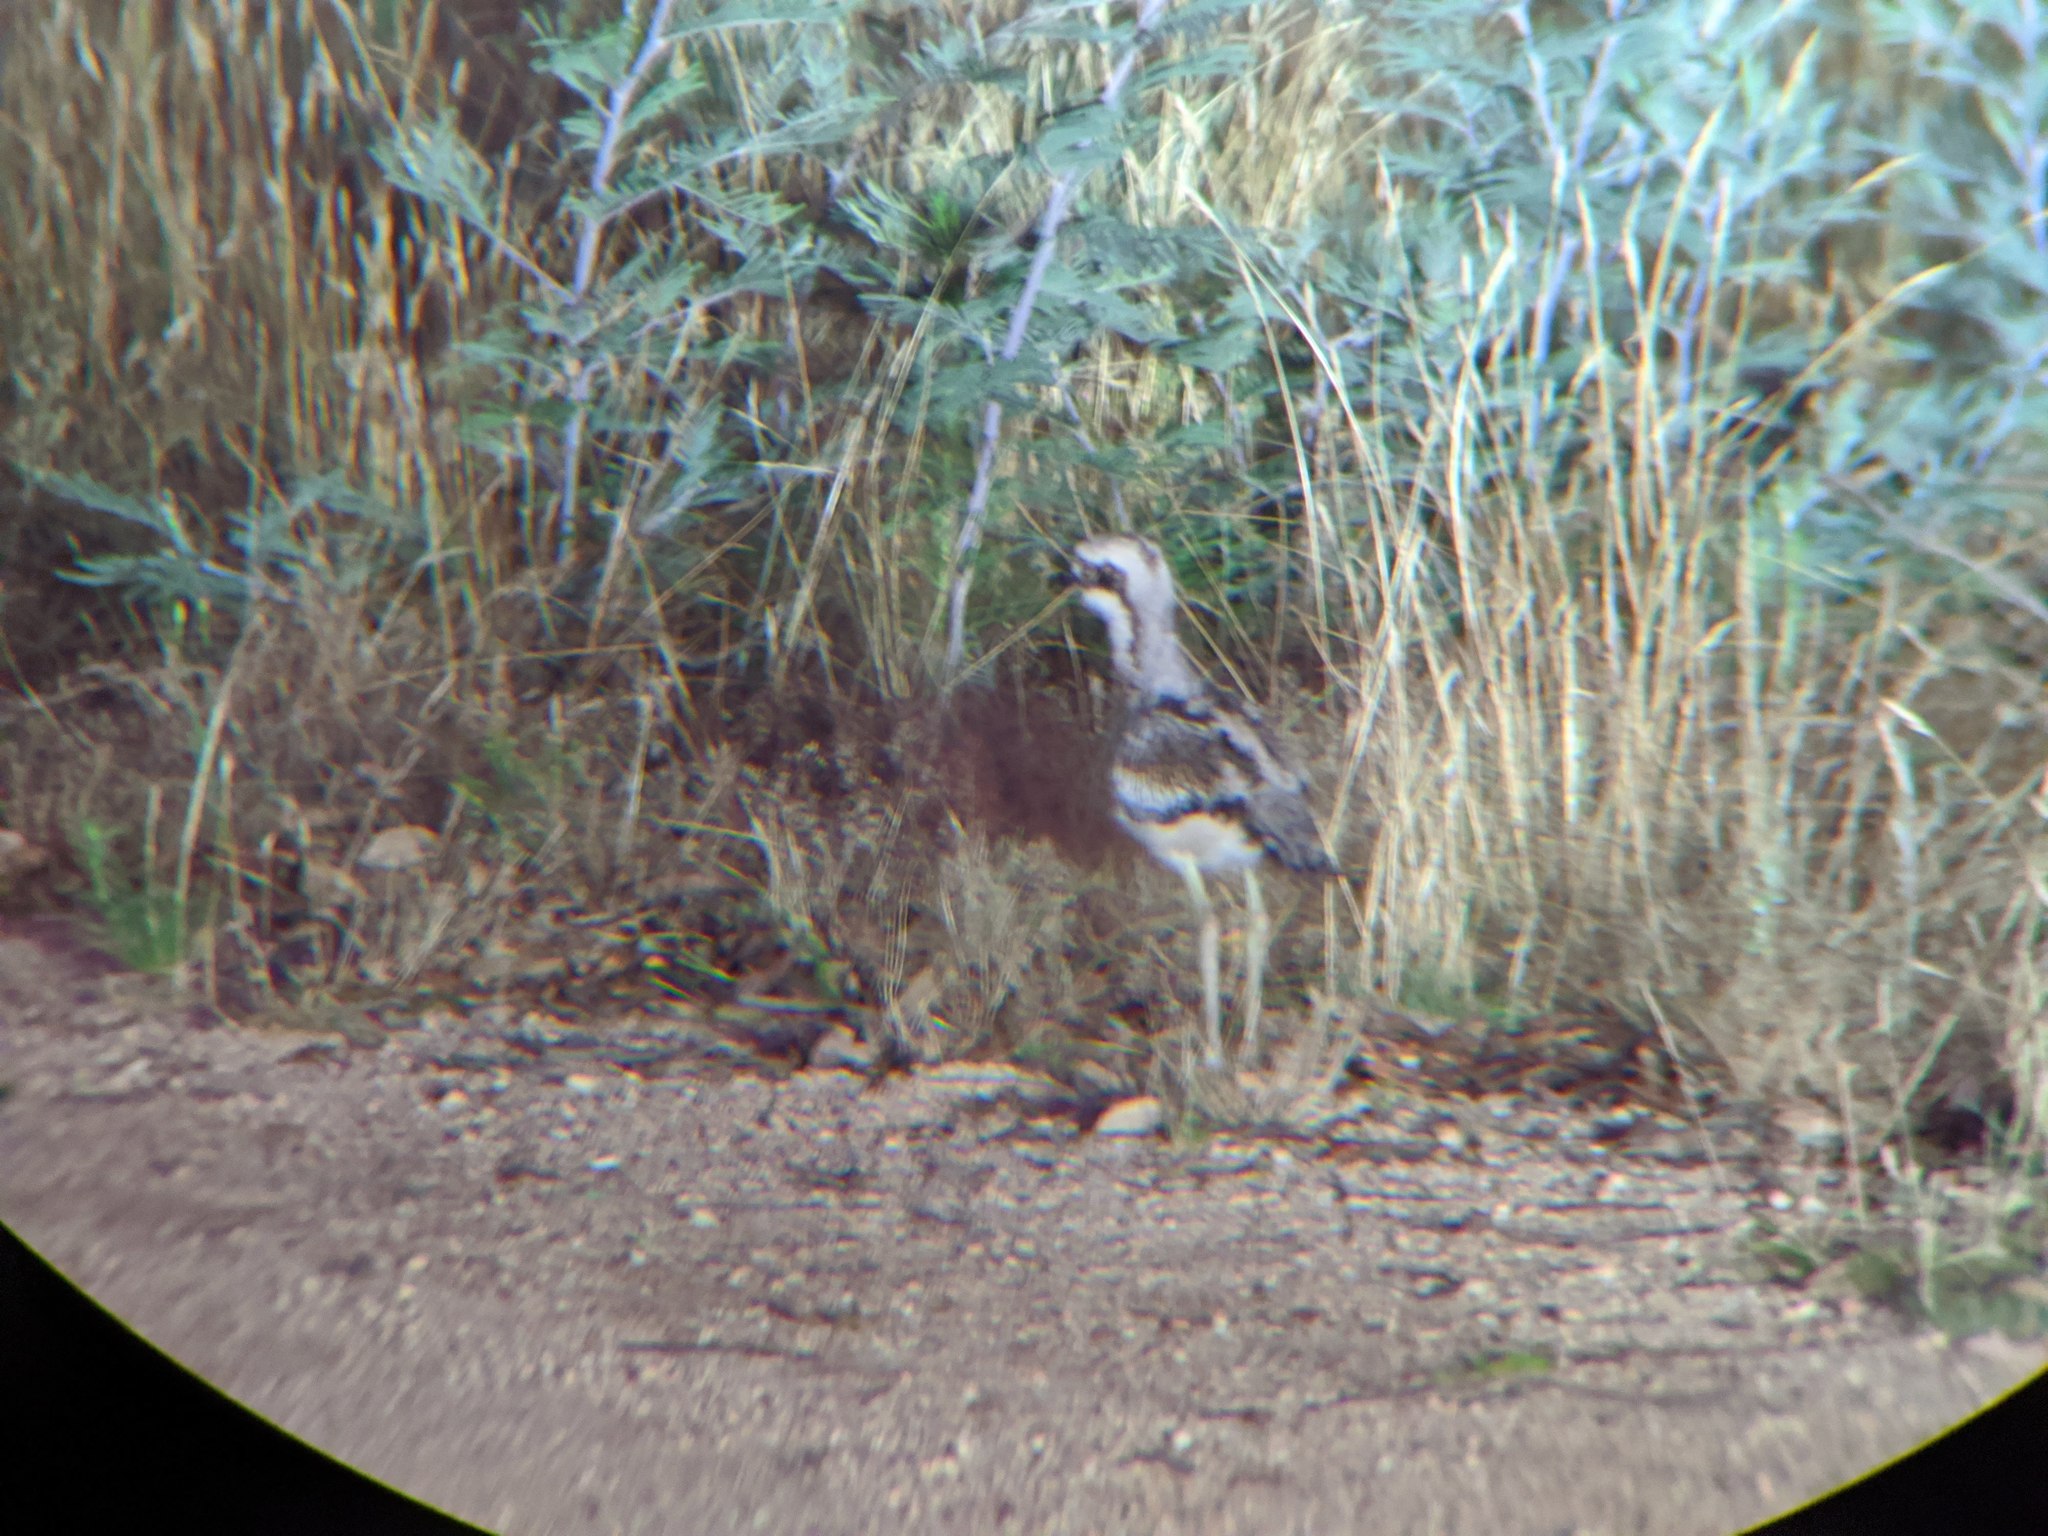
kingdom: Animalia
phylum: Chordata
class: Aves
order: Charadriiformes
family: Burhinidae
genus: Burhinus
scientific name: Burhinus grallarius
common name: Bush stone-curlew
